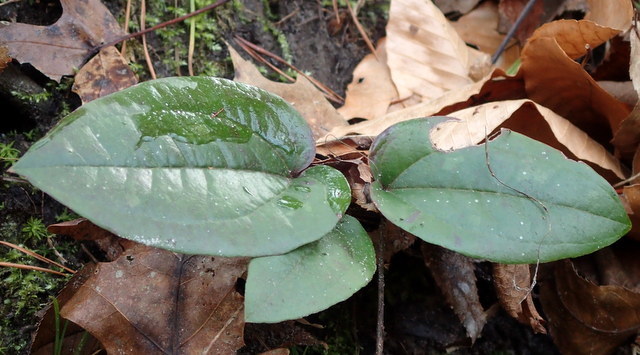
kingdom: Plantae
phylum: Tracheophyta
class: Liliopsida
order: Liliales
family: Smilacaceae
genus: Smilax
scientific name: Smilax pumila
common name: Sarsaparilla-vine
